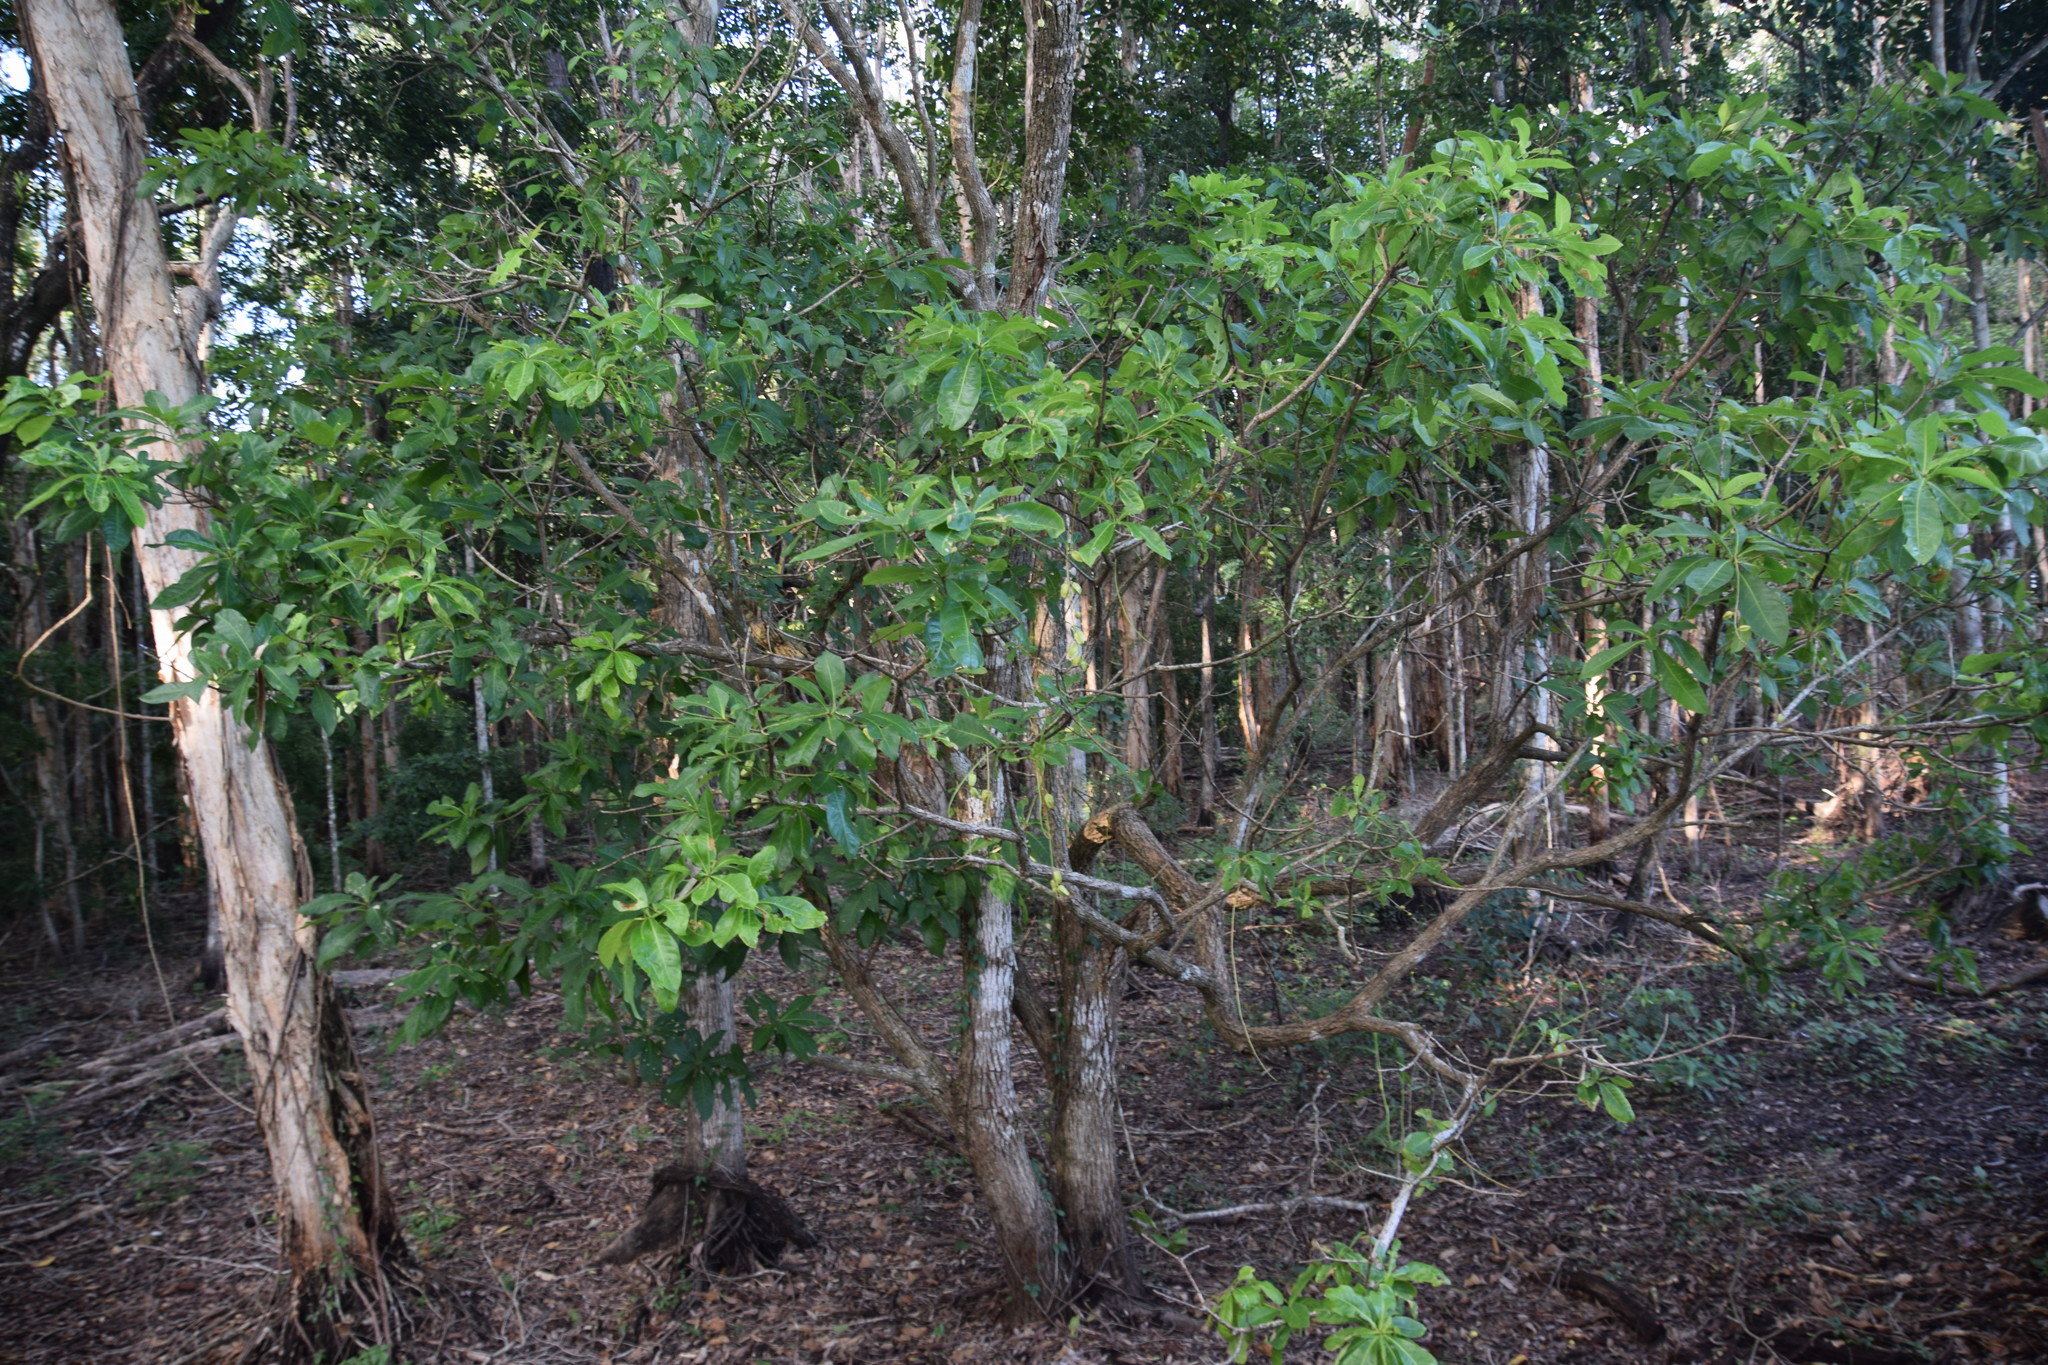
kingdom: Plantae
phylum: Tracheophyta
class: Magnoliopsida
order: Ericales
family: Lecythidaceae
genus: Barringtonia
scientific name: Barringtonia acutangula
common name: Freshwater mangrove
